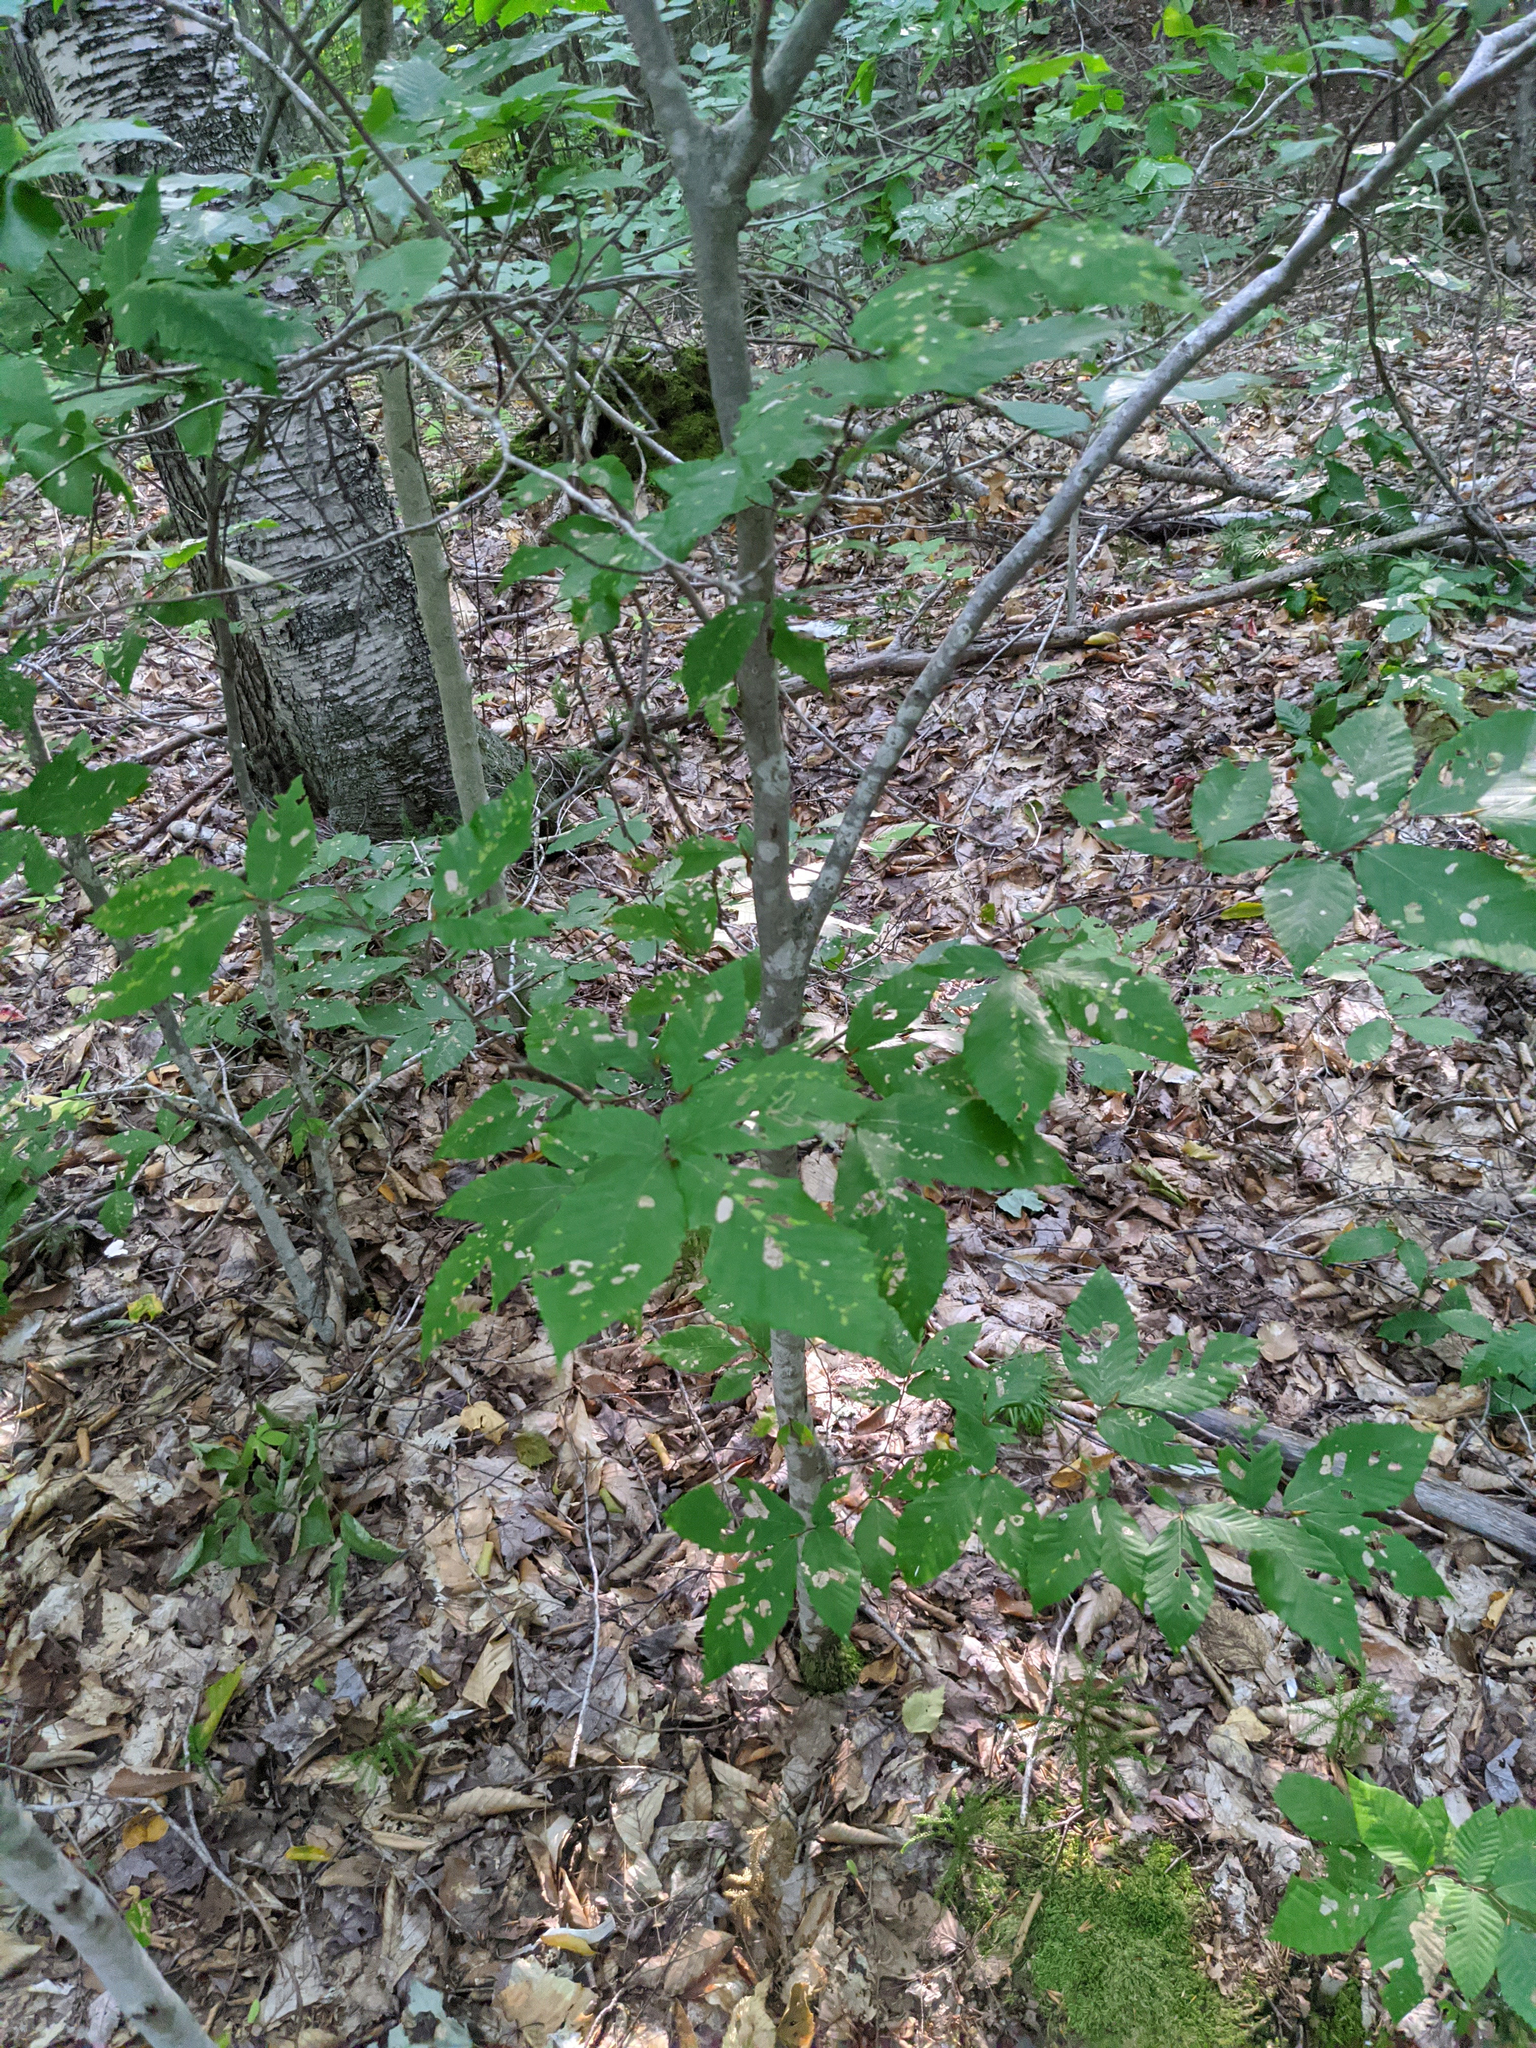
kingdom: Plantae
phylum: Tracheophyta
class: Magnoliopsida
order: Fagales
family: Fagaceae
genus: Fagus
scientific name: Fagus grandifolia
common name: American beech
